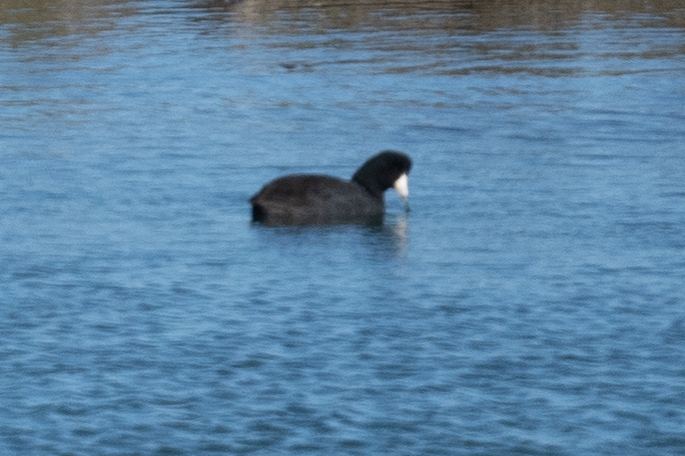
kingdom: Animalia
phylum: Chordata
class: Aves
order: Gruiformes
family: Rallidae
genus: Fulica
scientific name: Fulica americana
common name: American coot
